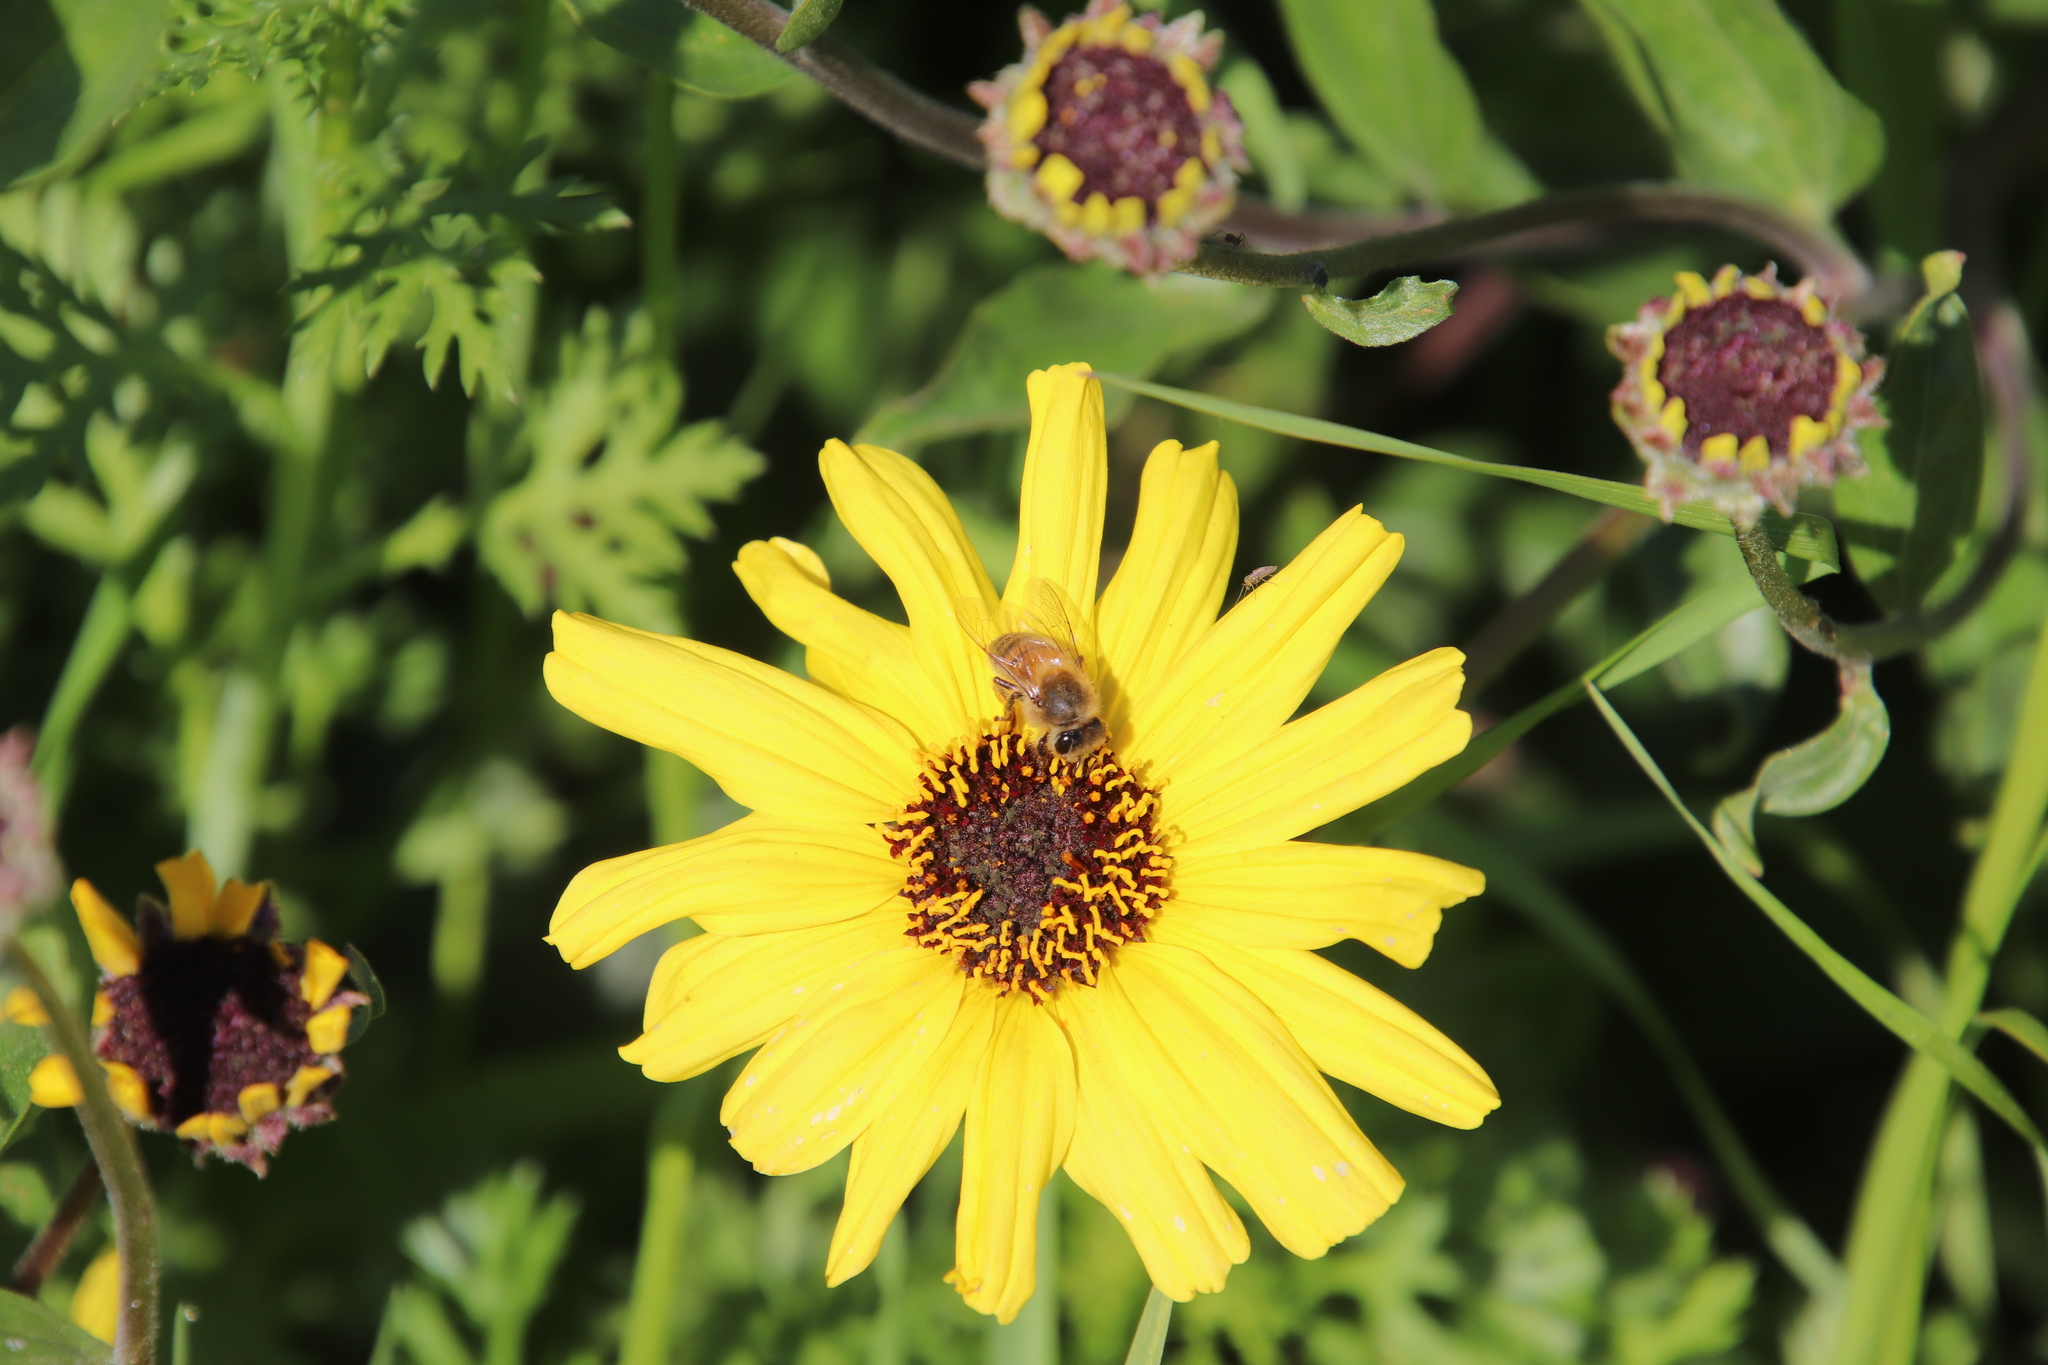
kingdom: Plantae
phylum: Tracheophyta
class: Magnoliopsida
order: Asterales
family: Asteraceae
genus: Encelia
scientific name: Encelia californica
